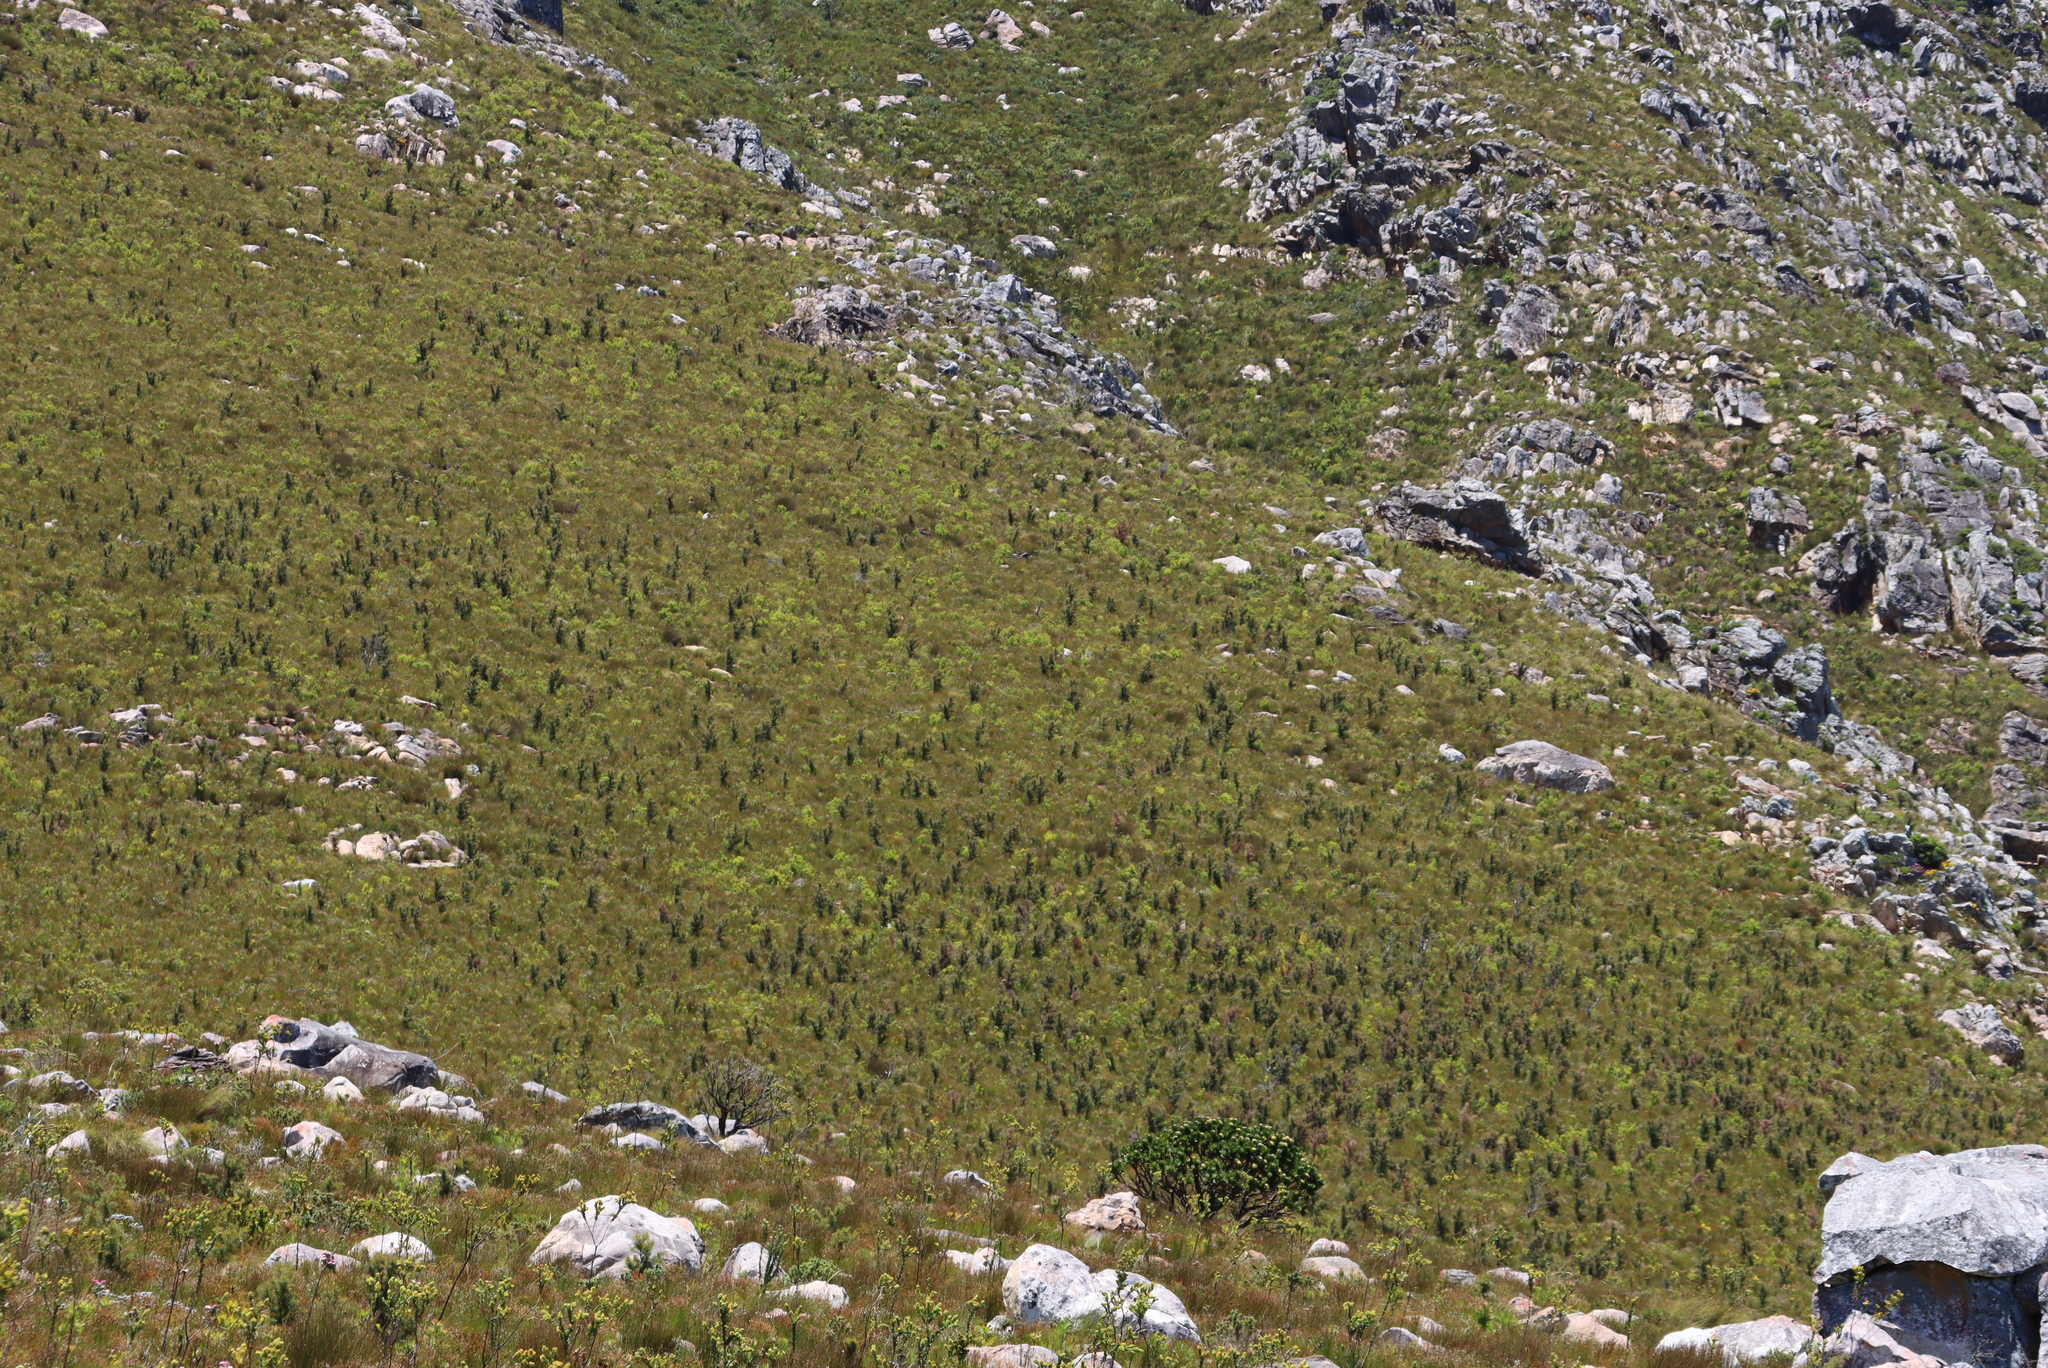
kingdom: Plantae
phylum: Tracheophyta
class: Magnoliopsida
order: Proteales
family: Proteaceae
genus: Hakea
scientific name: Hakea sericea
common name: Needle bush
